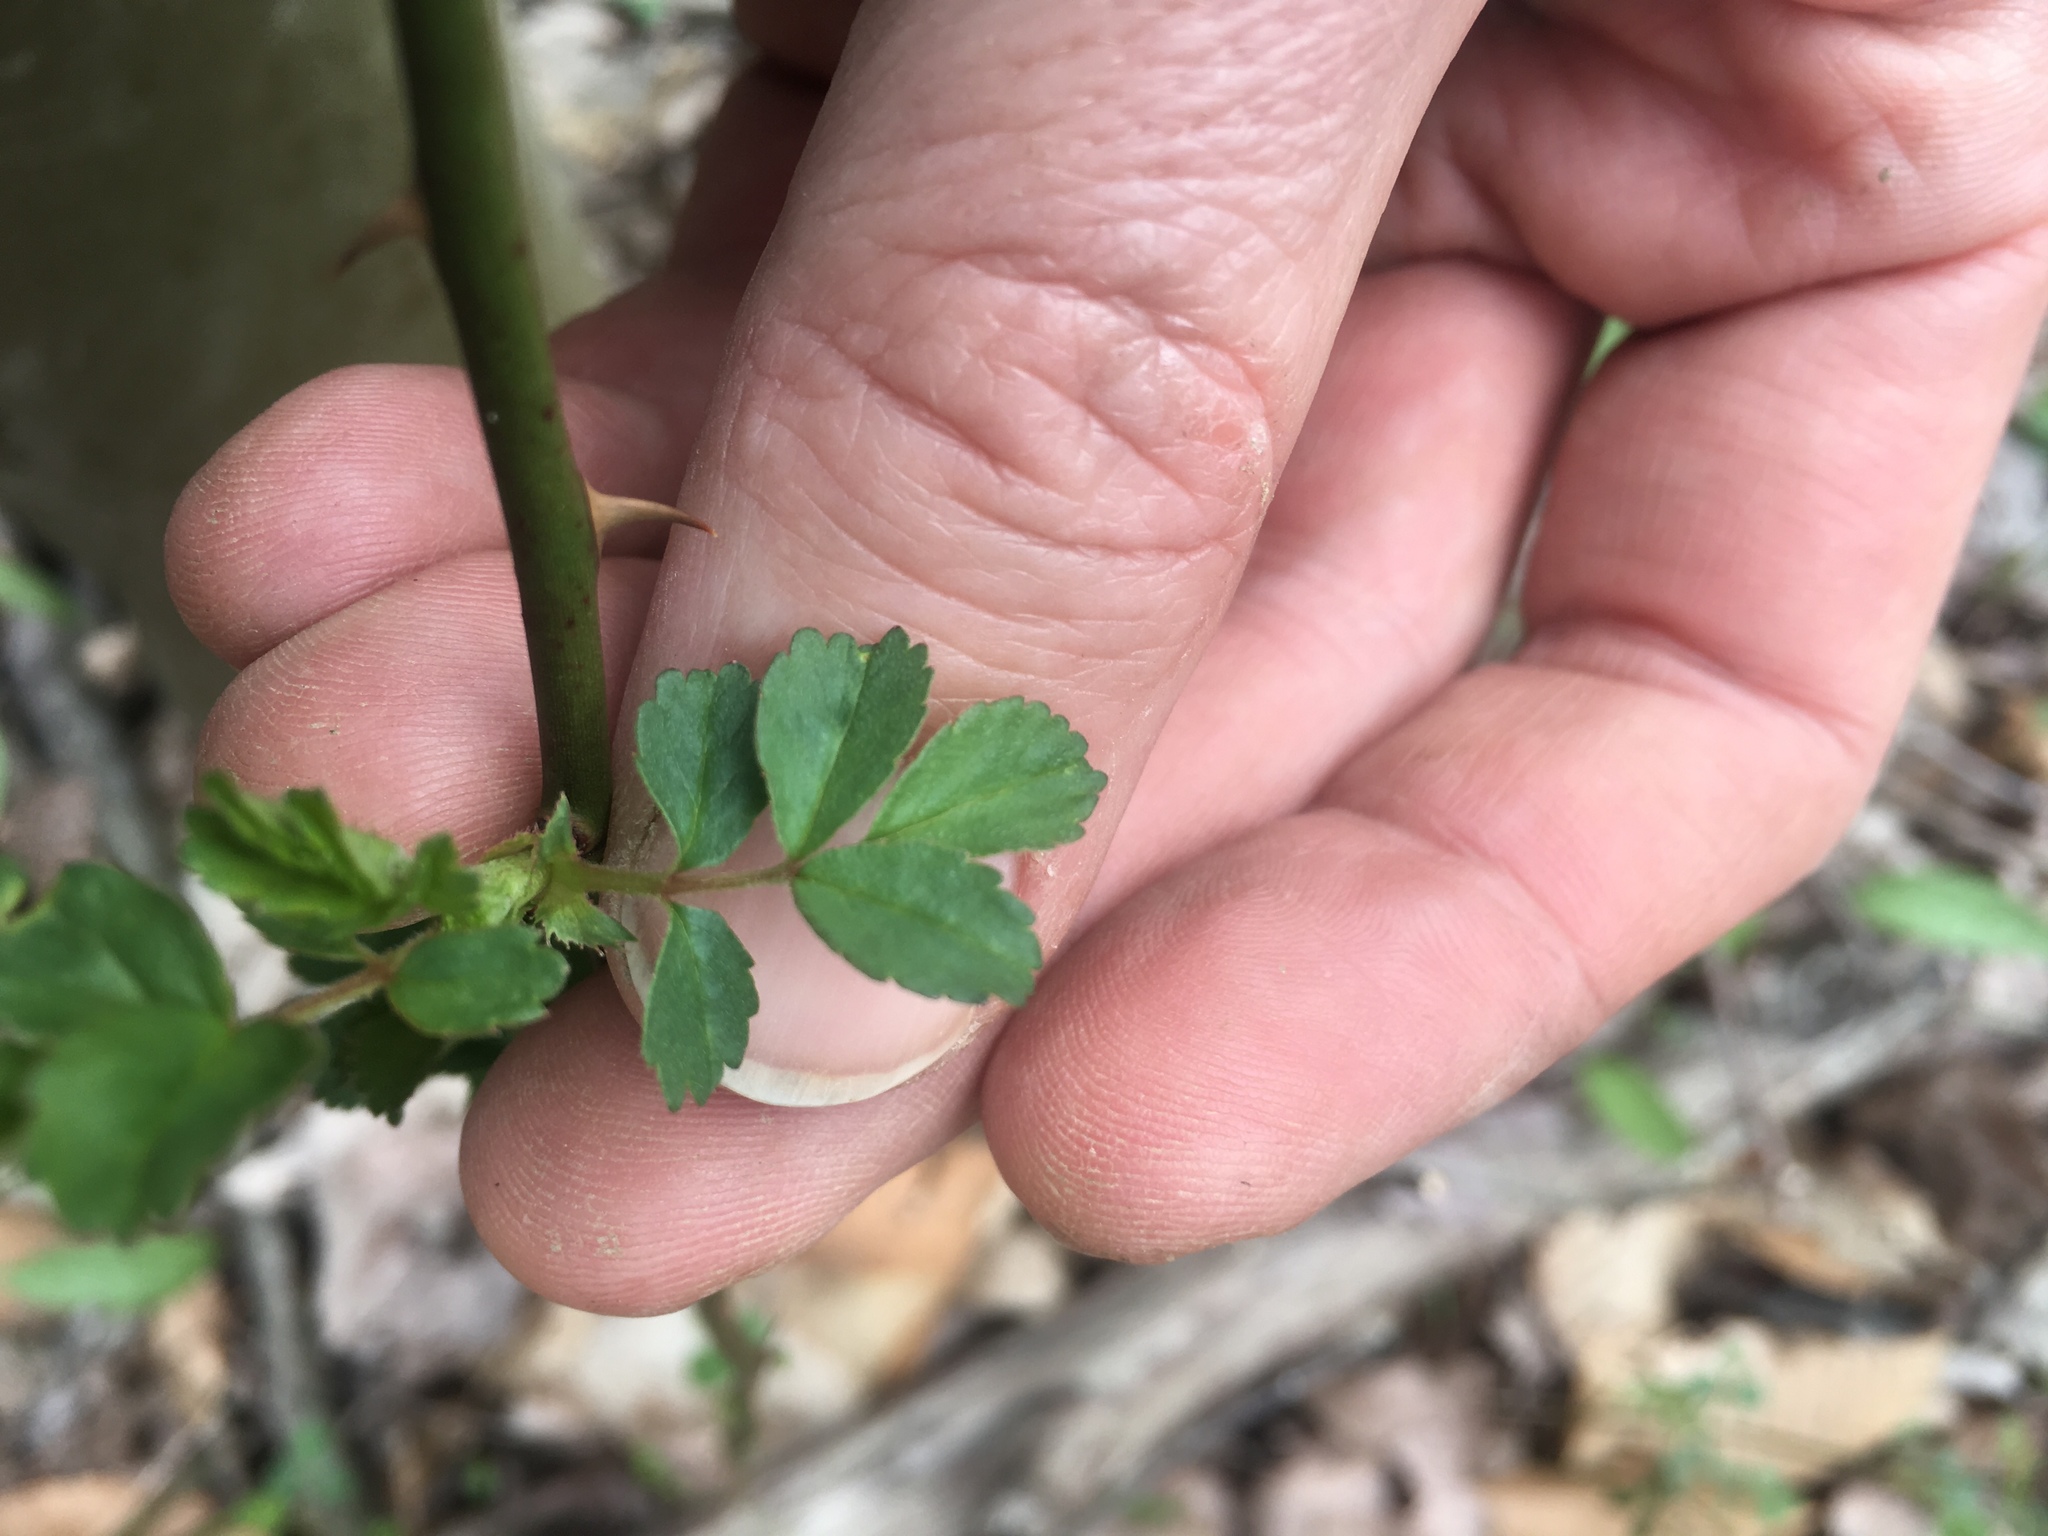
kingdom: Plantae
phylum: Tracheophyta
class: Magnoliopsida
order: Rosales
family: Rosaceae
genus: Rosa
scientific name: Rosa multiflora
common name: Multiflora rose
